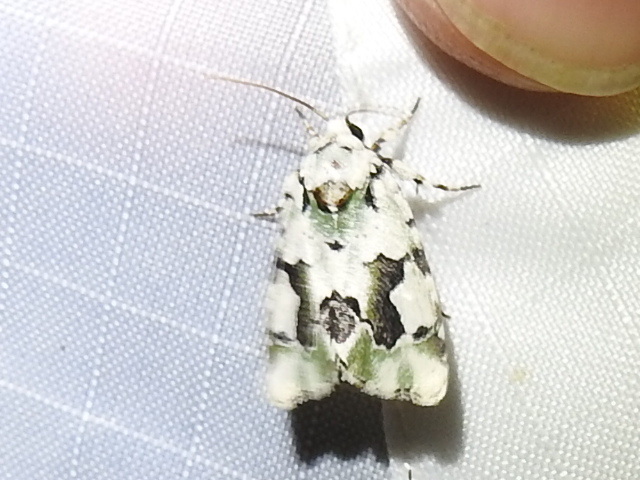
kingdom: Animalia
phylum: Arthropoda
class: Insecta
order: Lepidoptera
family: Noctuidae
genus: Emarginea
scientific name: Emarginea percara
